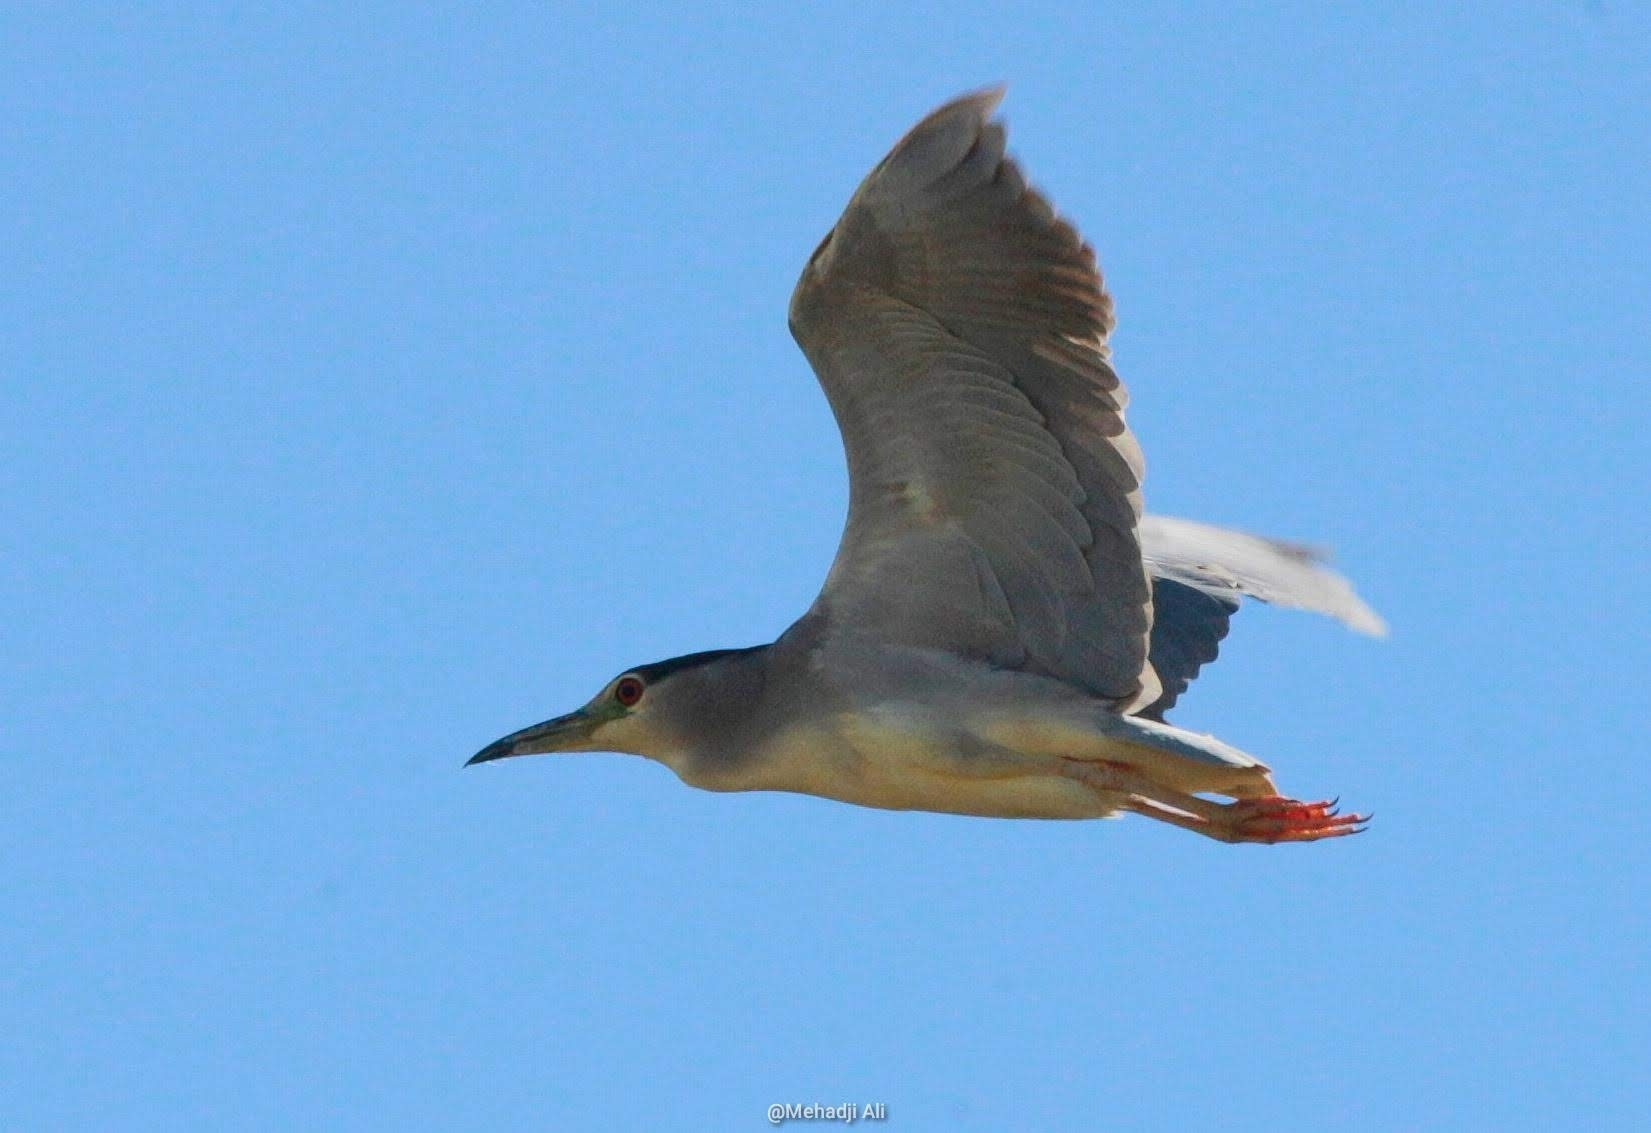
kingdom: Animalia
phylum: Chordata
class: Aves
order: Pelecaniformes
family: Ardeidae
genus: Nycticorax
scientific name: Nycticorax nycticorax
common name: Black-crowned night heron
